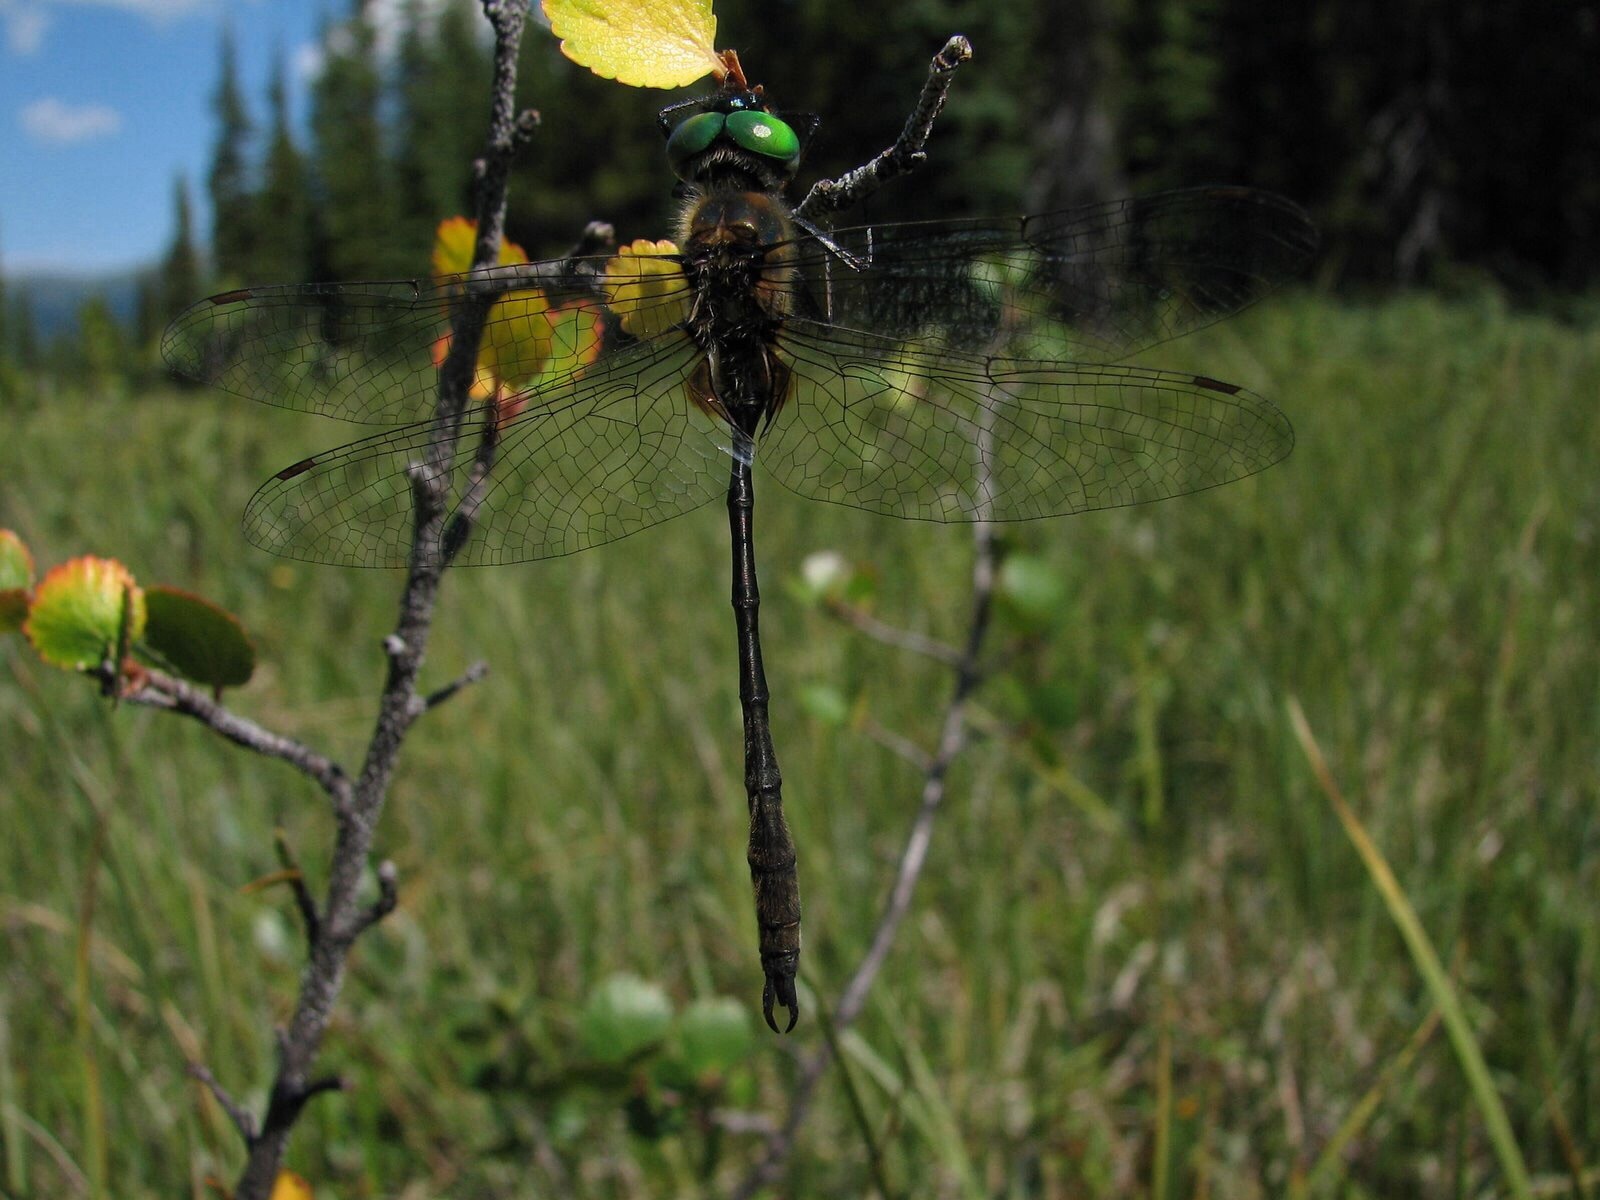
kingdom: Animalia
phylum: Arthropoda
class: Insecta
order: Odonata
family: Corduliidae
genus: Somatochlora
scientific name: Somatochlora franklini
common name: Delicate emerald
